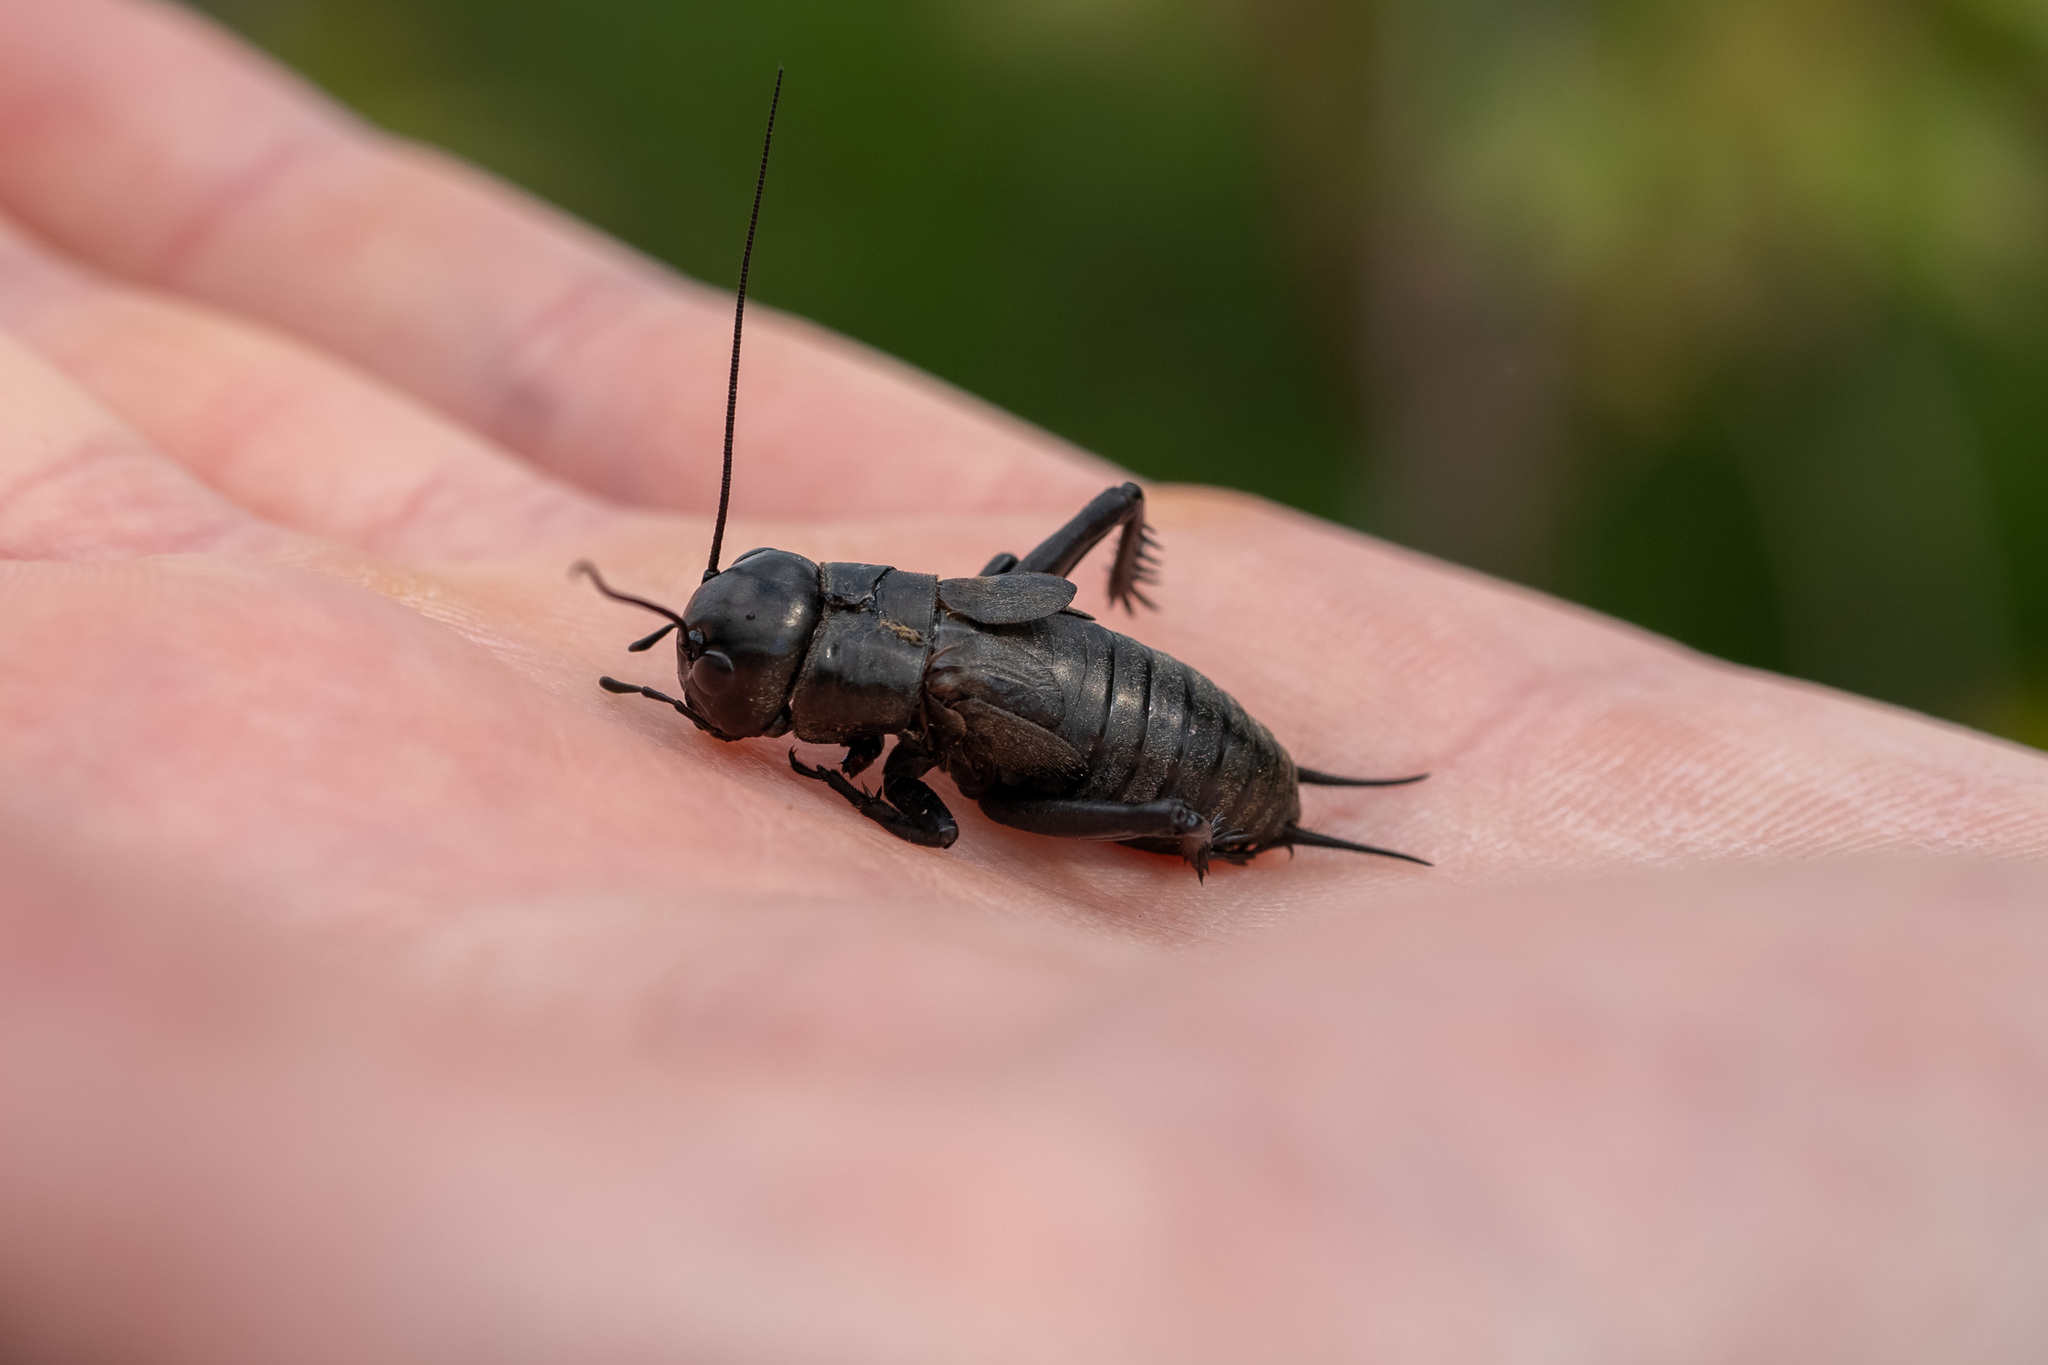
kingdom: Animalia
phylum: Arthropoda
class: Insecta
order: Orthoptera
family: Gryllidae
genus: Gryllus
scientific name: Gryllus campestris
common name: Field cricket
